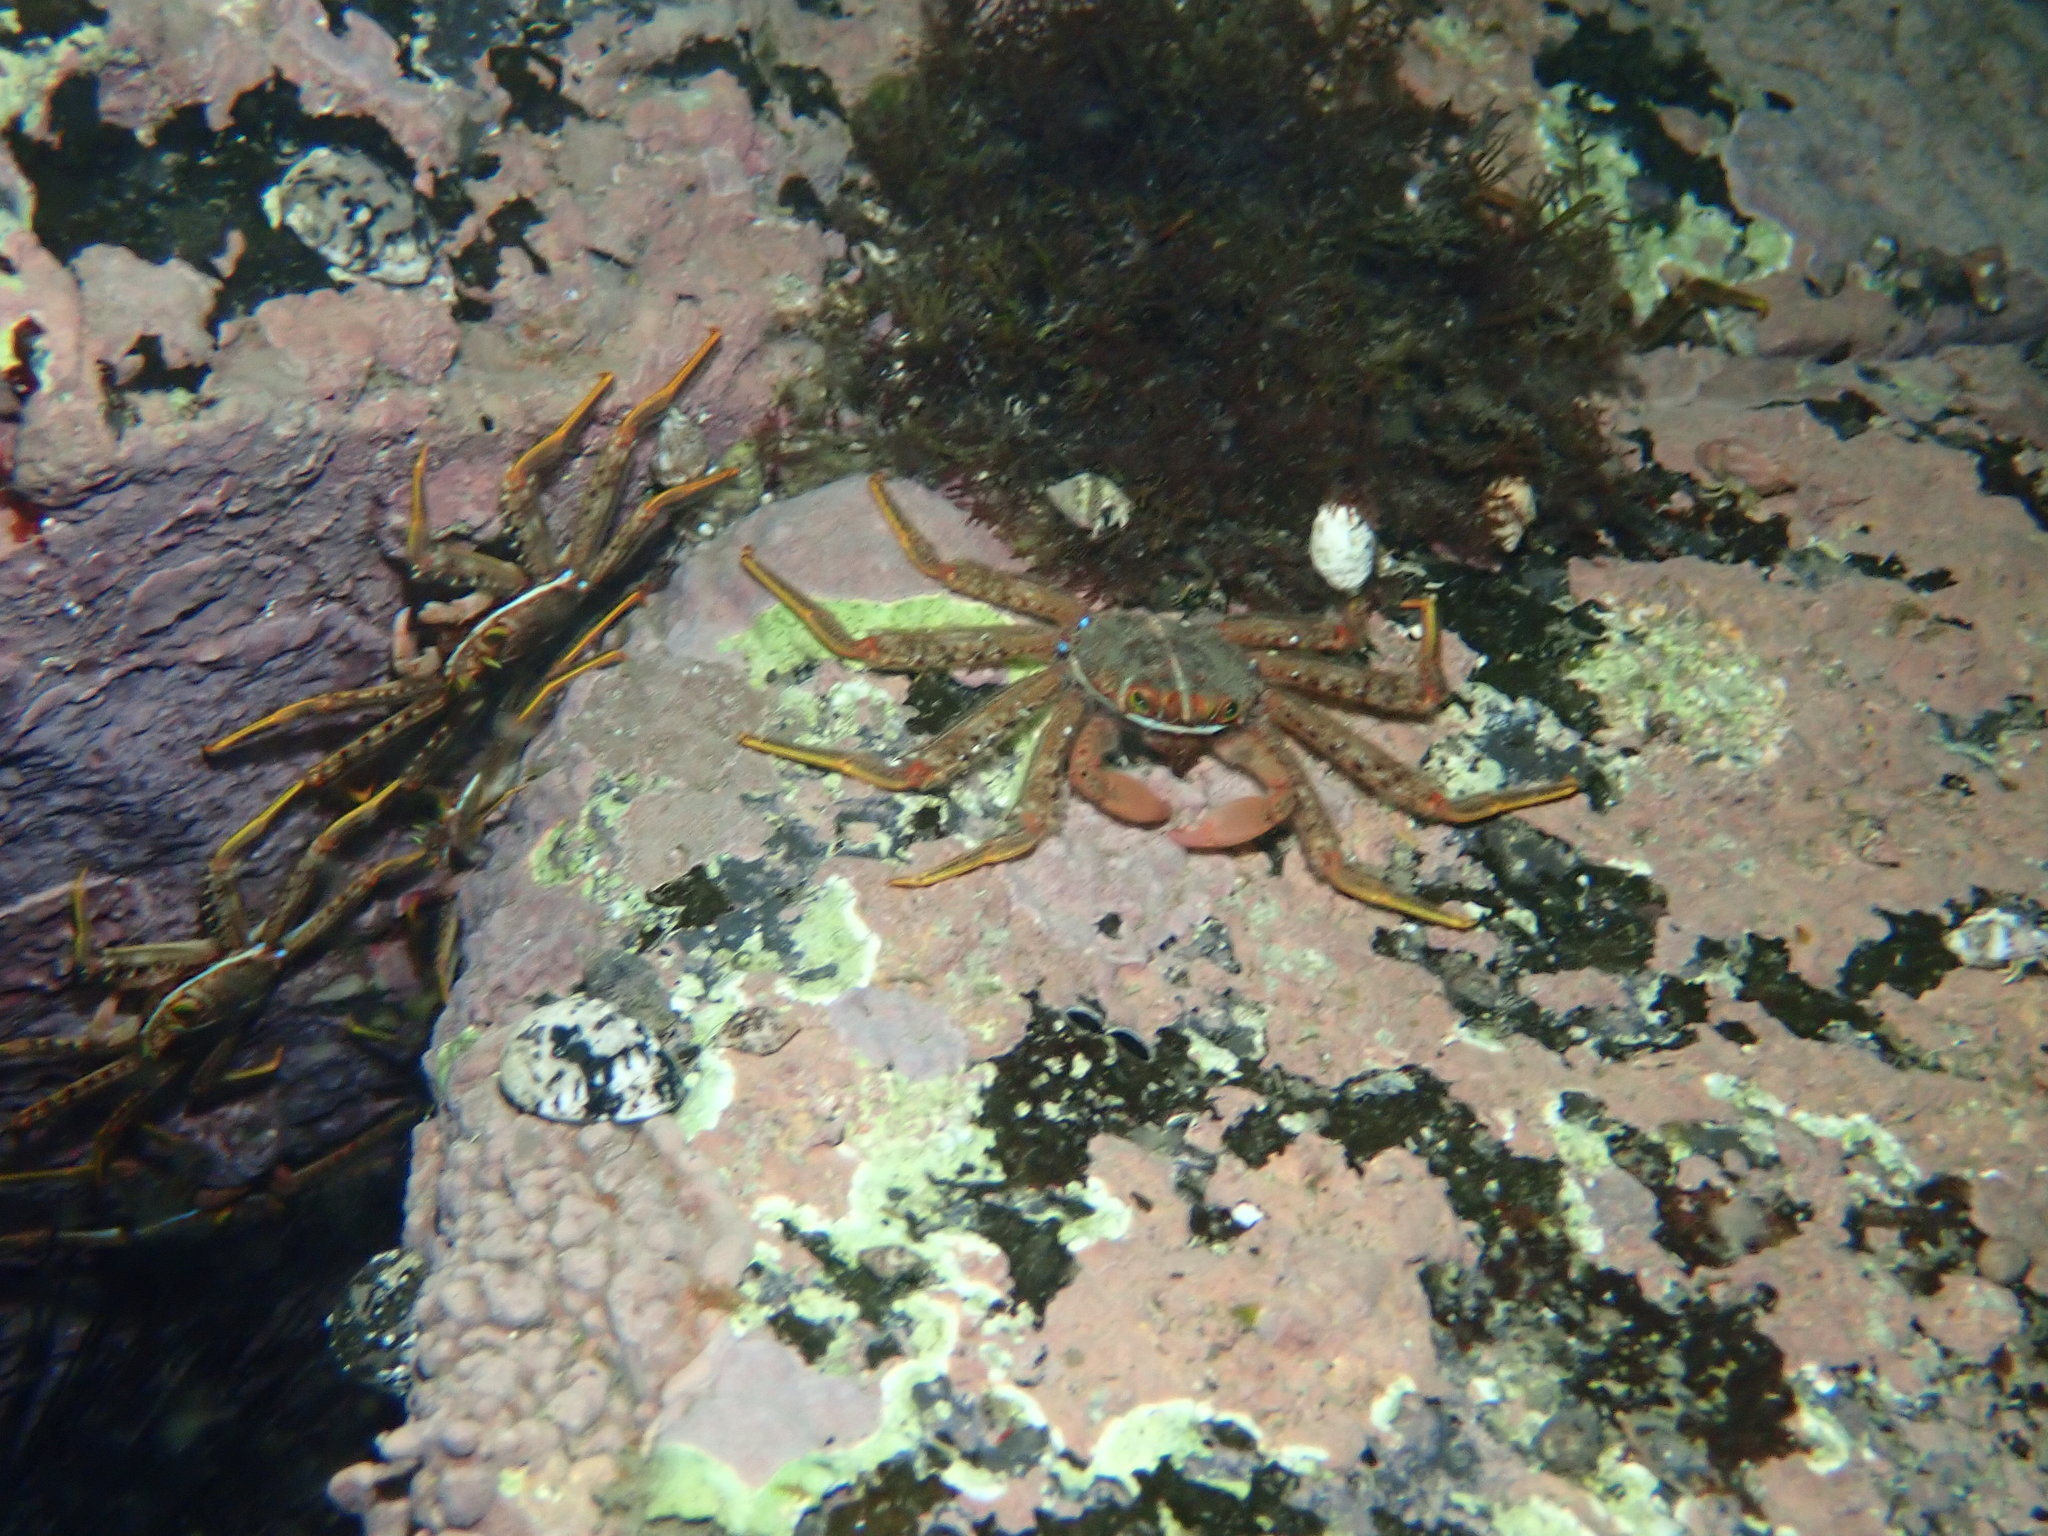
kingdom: Animalia
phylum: Arthropoda
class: Malacostraca
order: Decapoda
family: Percnidae
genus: Percnon
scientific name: Percnon sinense
